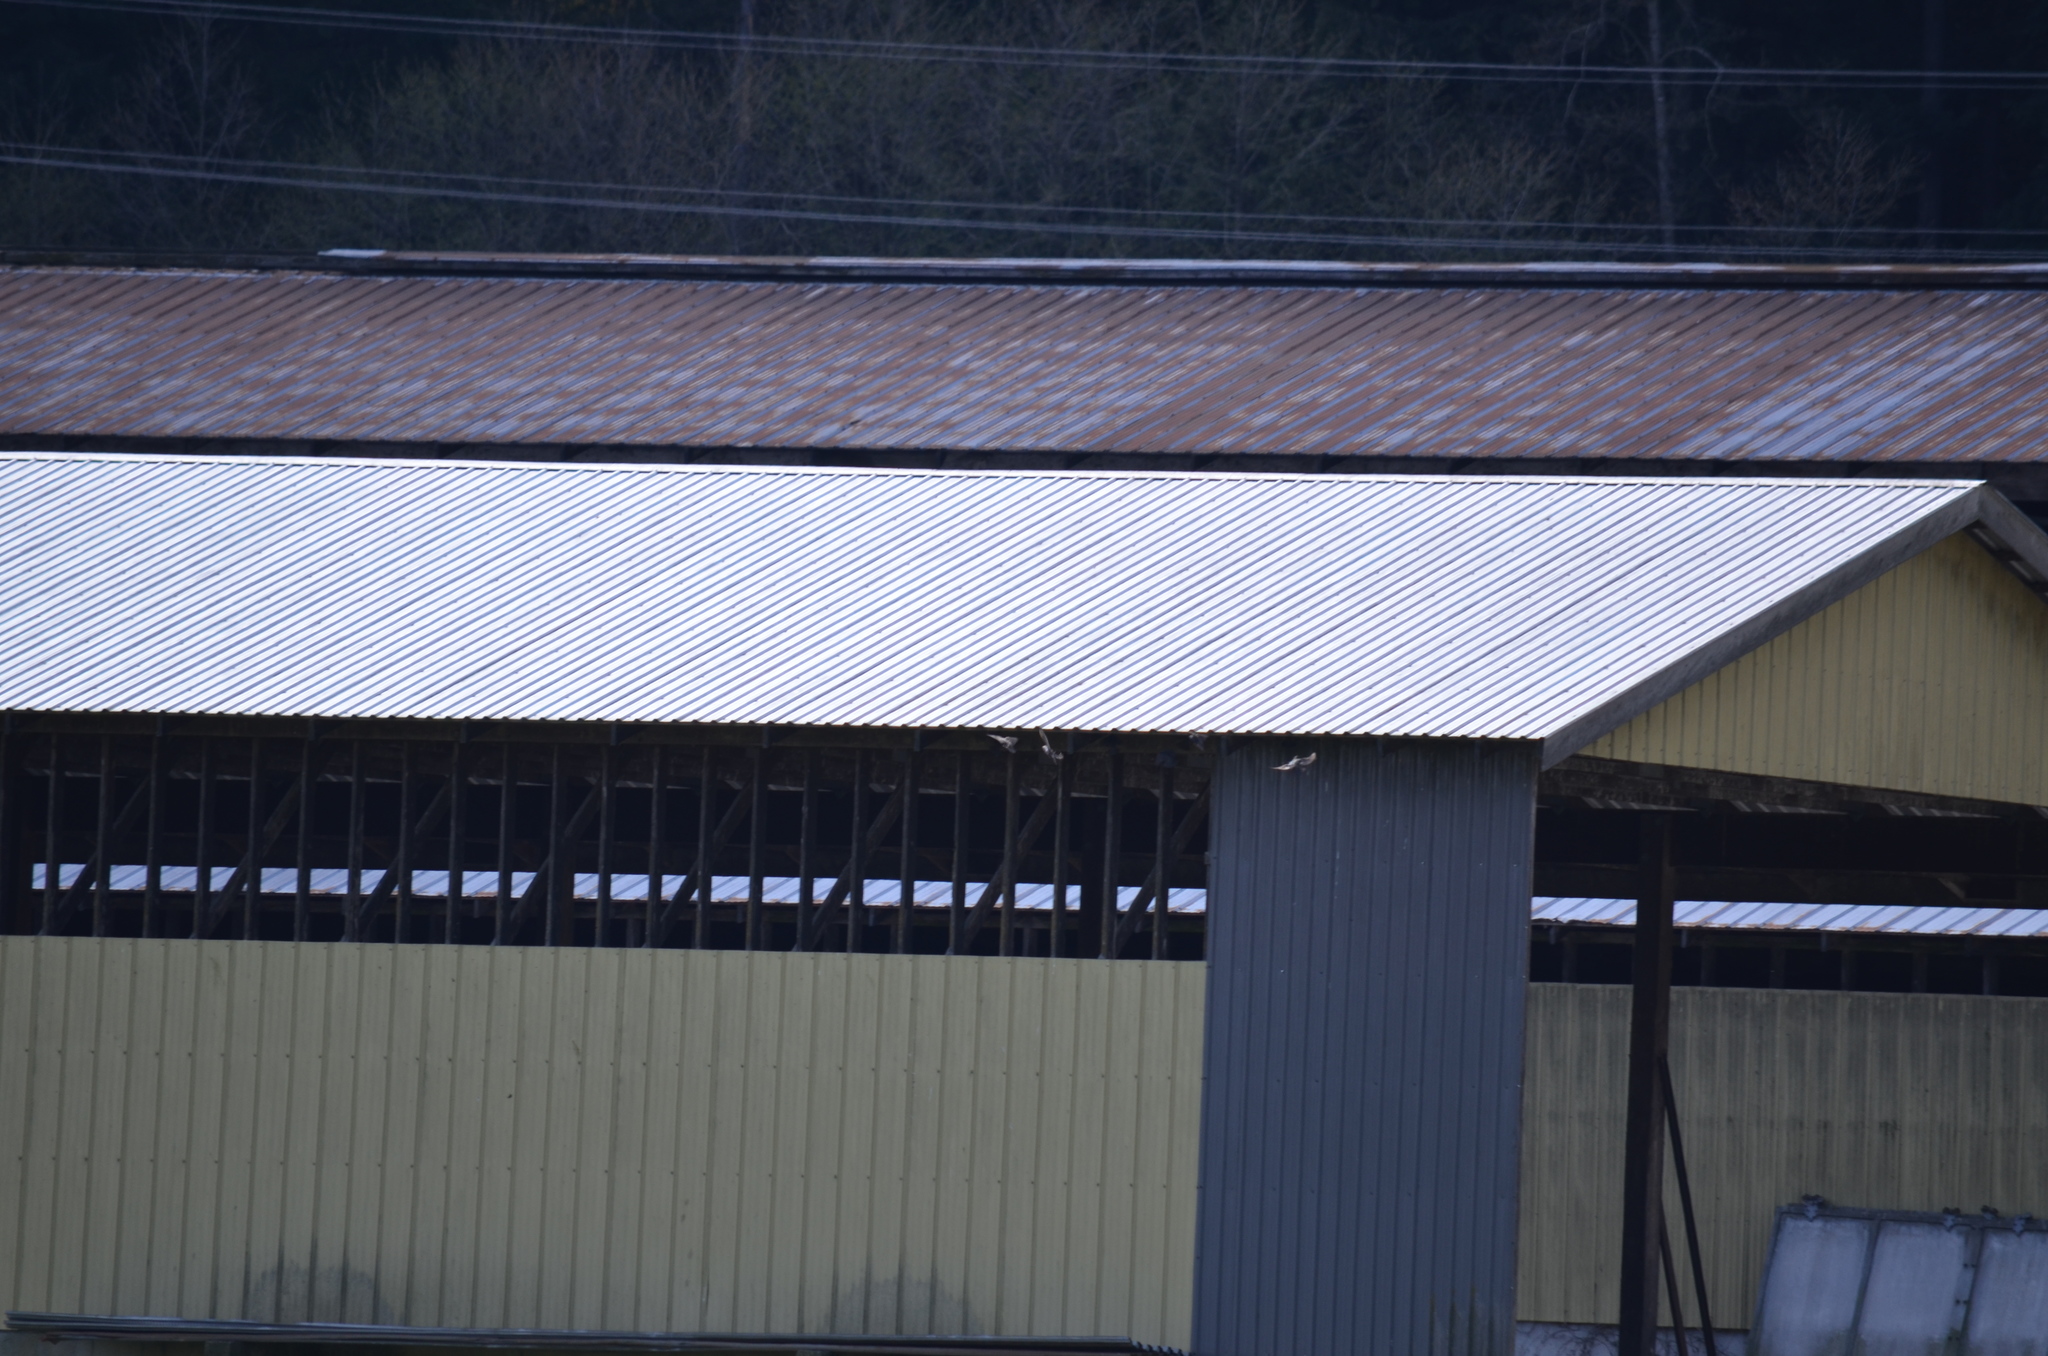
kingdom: Animalia
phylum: Chordata
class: Aves
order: Passeriformes
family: Sturnidae
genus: Sturnus
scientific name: Sturnus vulgaris
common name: Common starling
